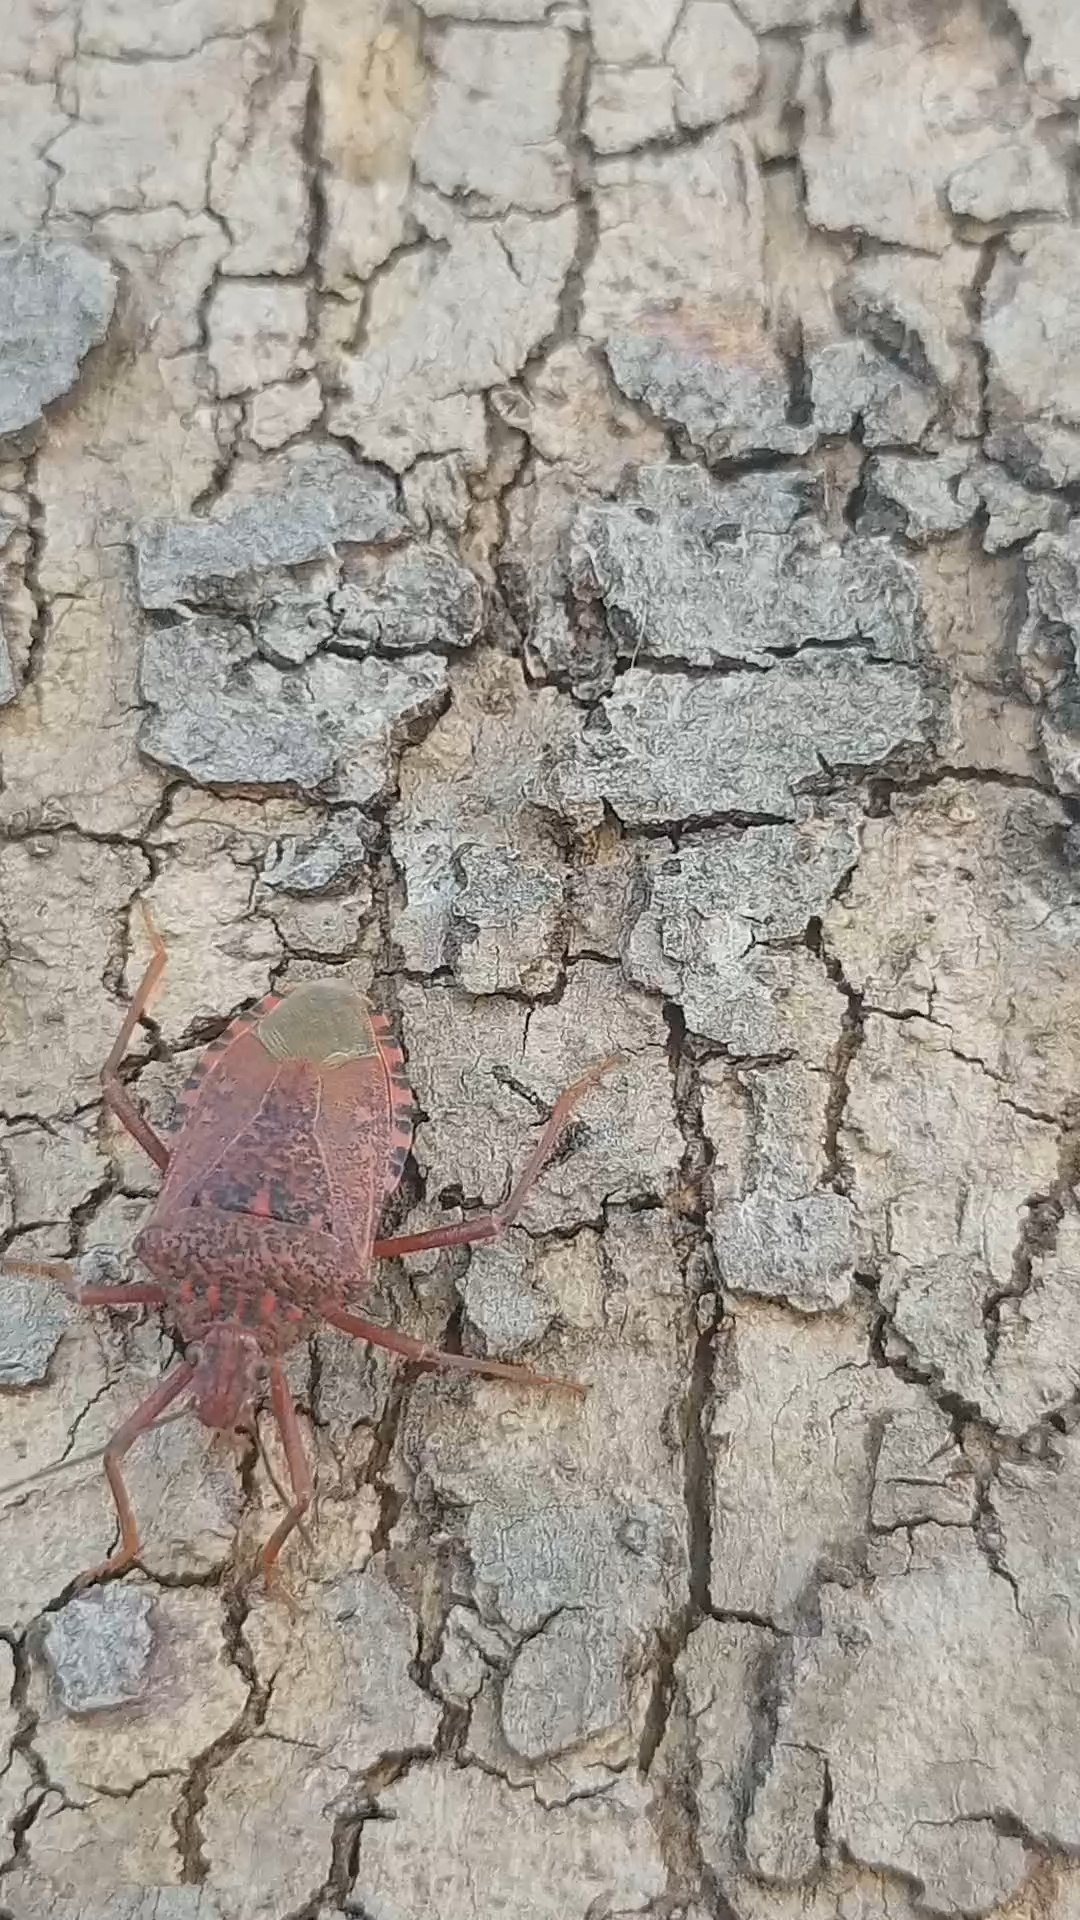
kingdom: Animalia
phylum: Arthropoda
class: Insecta
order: Hemiptera
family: Pentatomidae
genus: Apodiphus
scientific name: Apodiphus
